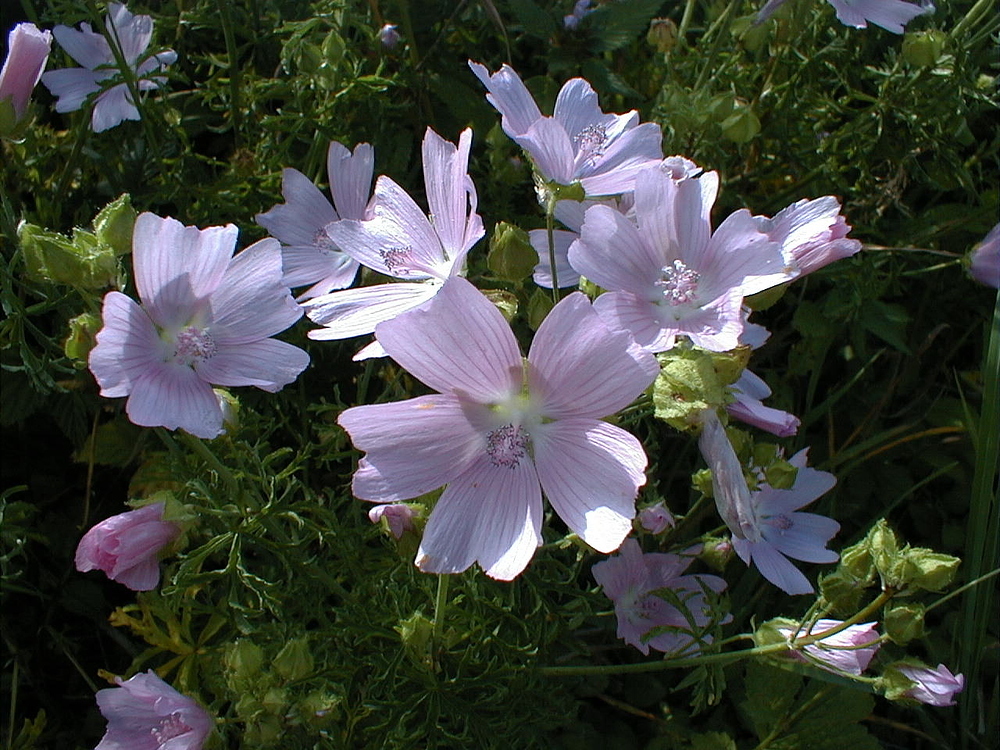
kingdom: Plantae
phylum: Tracheophyta
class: Magnoliopsida
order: Malvales
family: Malvaceae
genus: Malva
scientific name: Malva moschata
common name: Musk mallow
